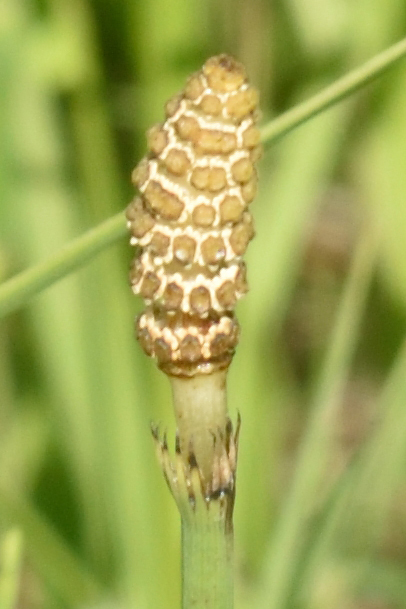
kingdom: Plantae
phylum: Tracheophyta
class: Polypodiopsida
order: Equisetales
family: Equisetaceae
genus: Equisetum
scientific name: Equisetum fluviatile
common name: Water horsetail
